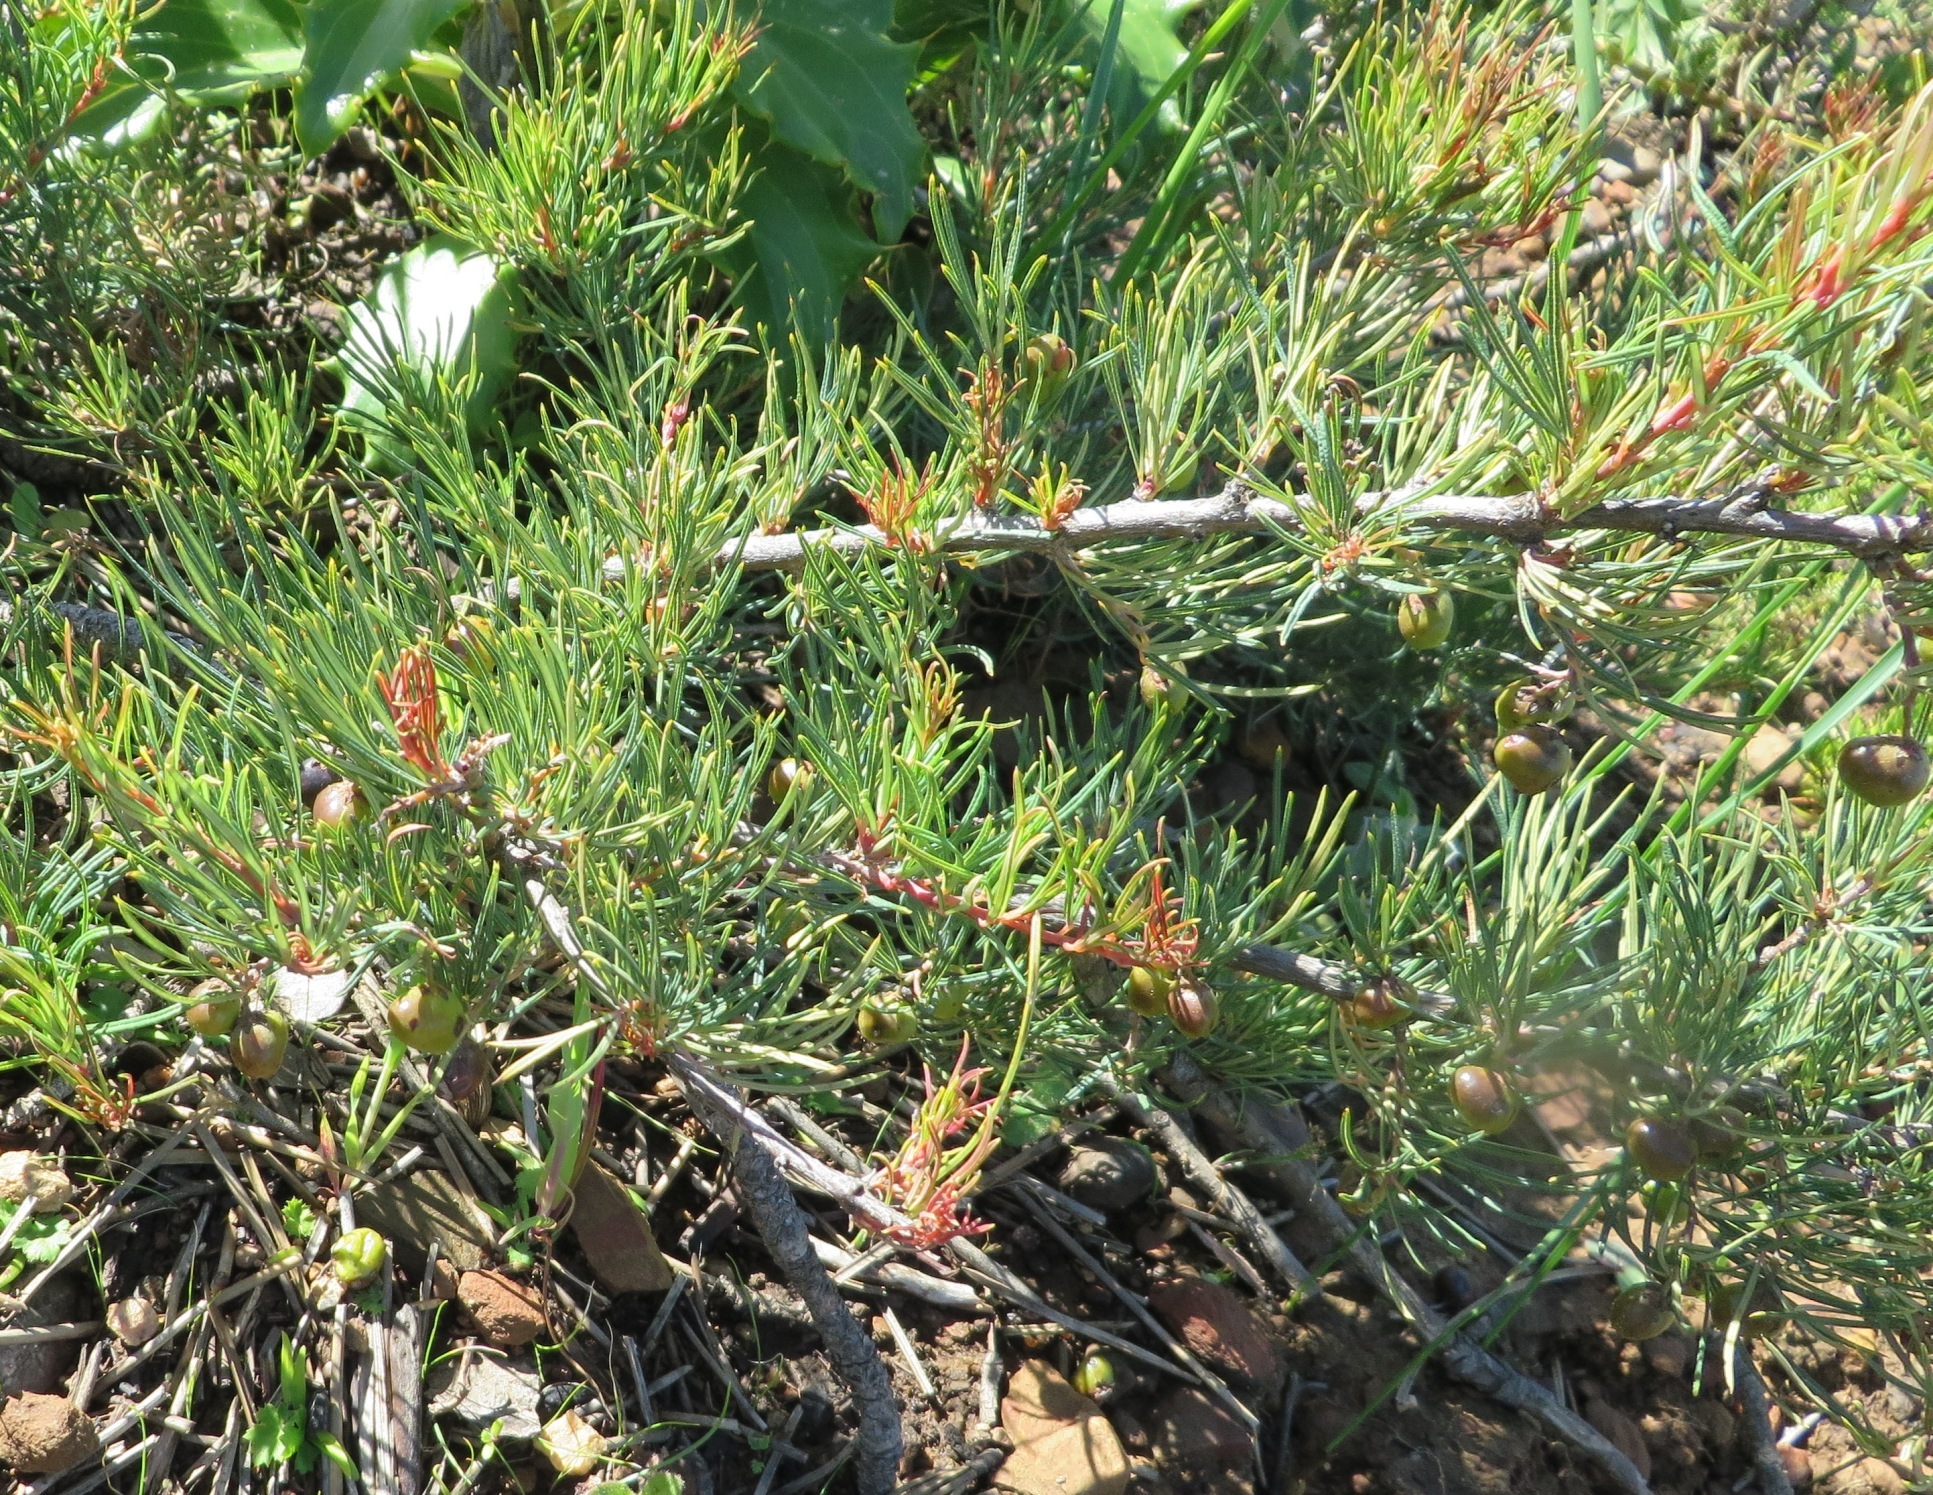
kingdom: Plantae
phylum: Tracheophyta
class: Magnoliopsida
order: Sapindales
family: Anacardiaceae
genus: Searsia
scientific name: Searsia rosmarinifolia
